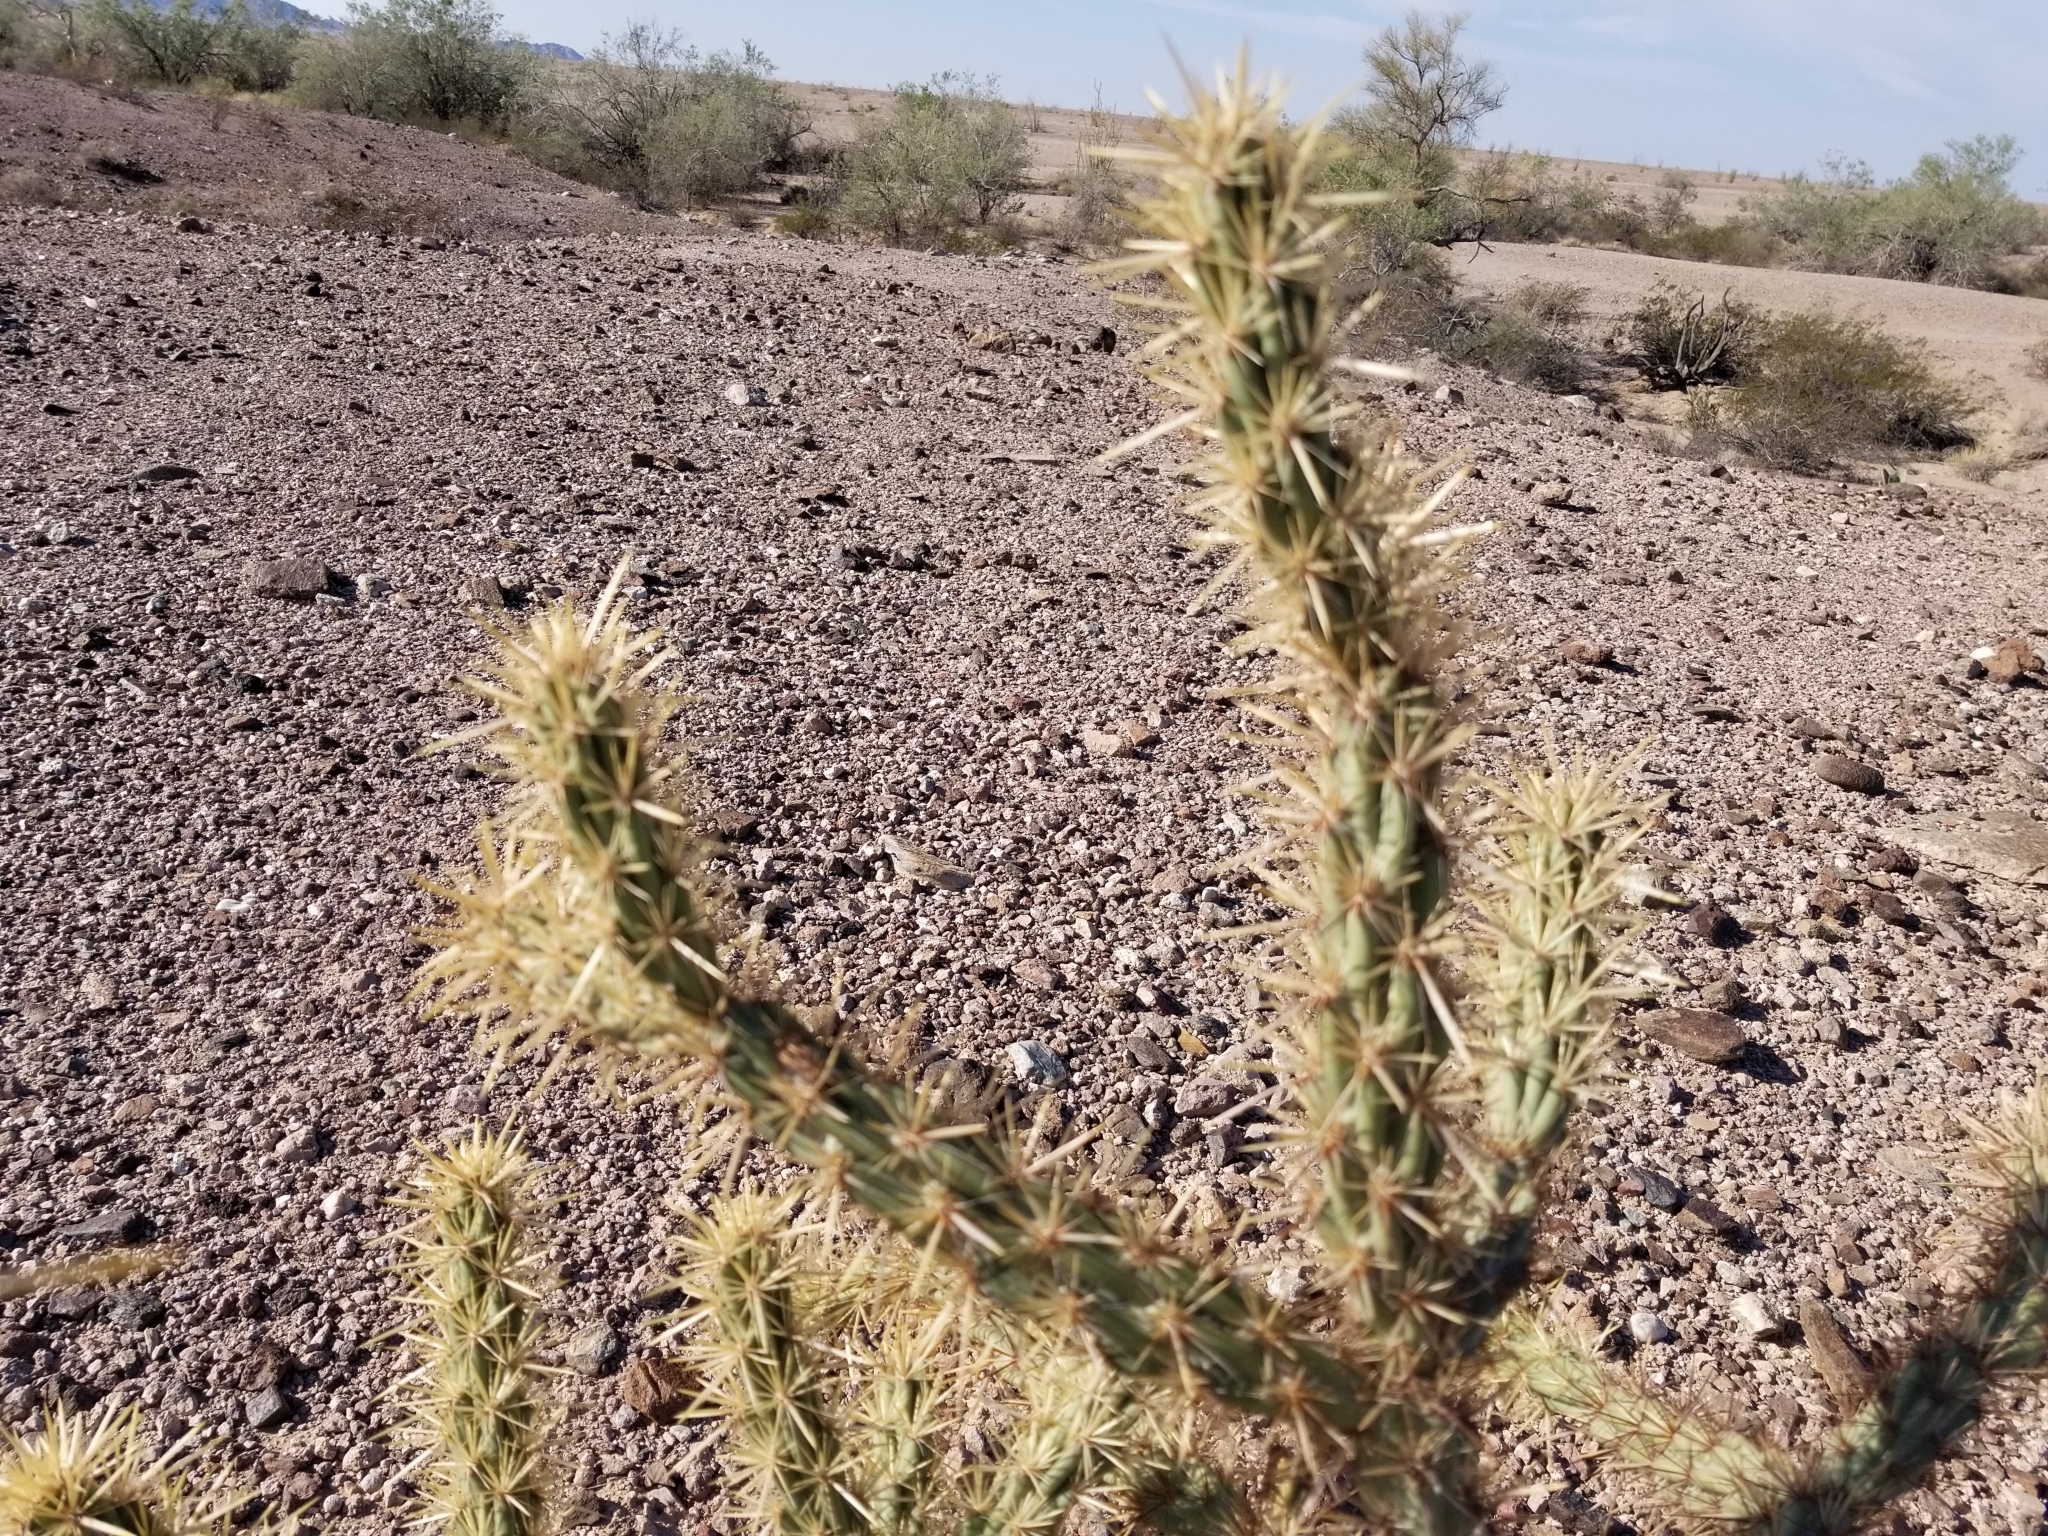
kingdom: Plantae
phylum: Tracheophyta
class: Magnoliopsida
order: Caryophyllales
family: Cactaceae
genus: Cylindropuntia
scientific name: Cylindropuntia acanthocarpa
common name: Buckhorn cholla
